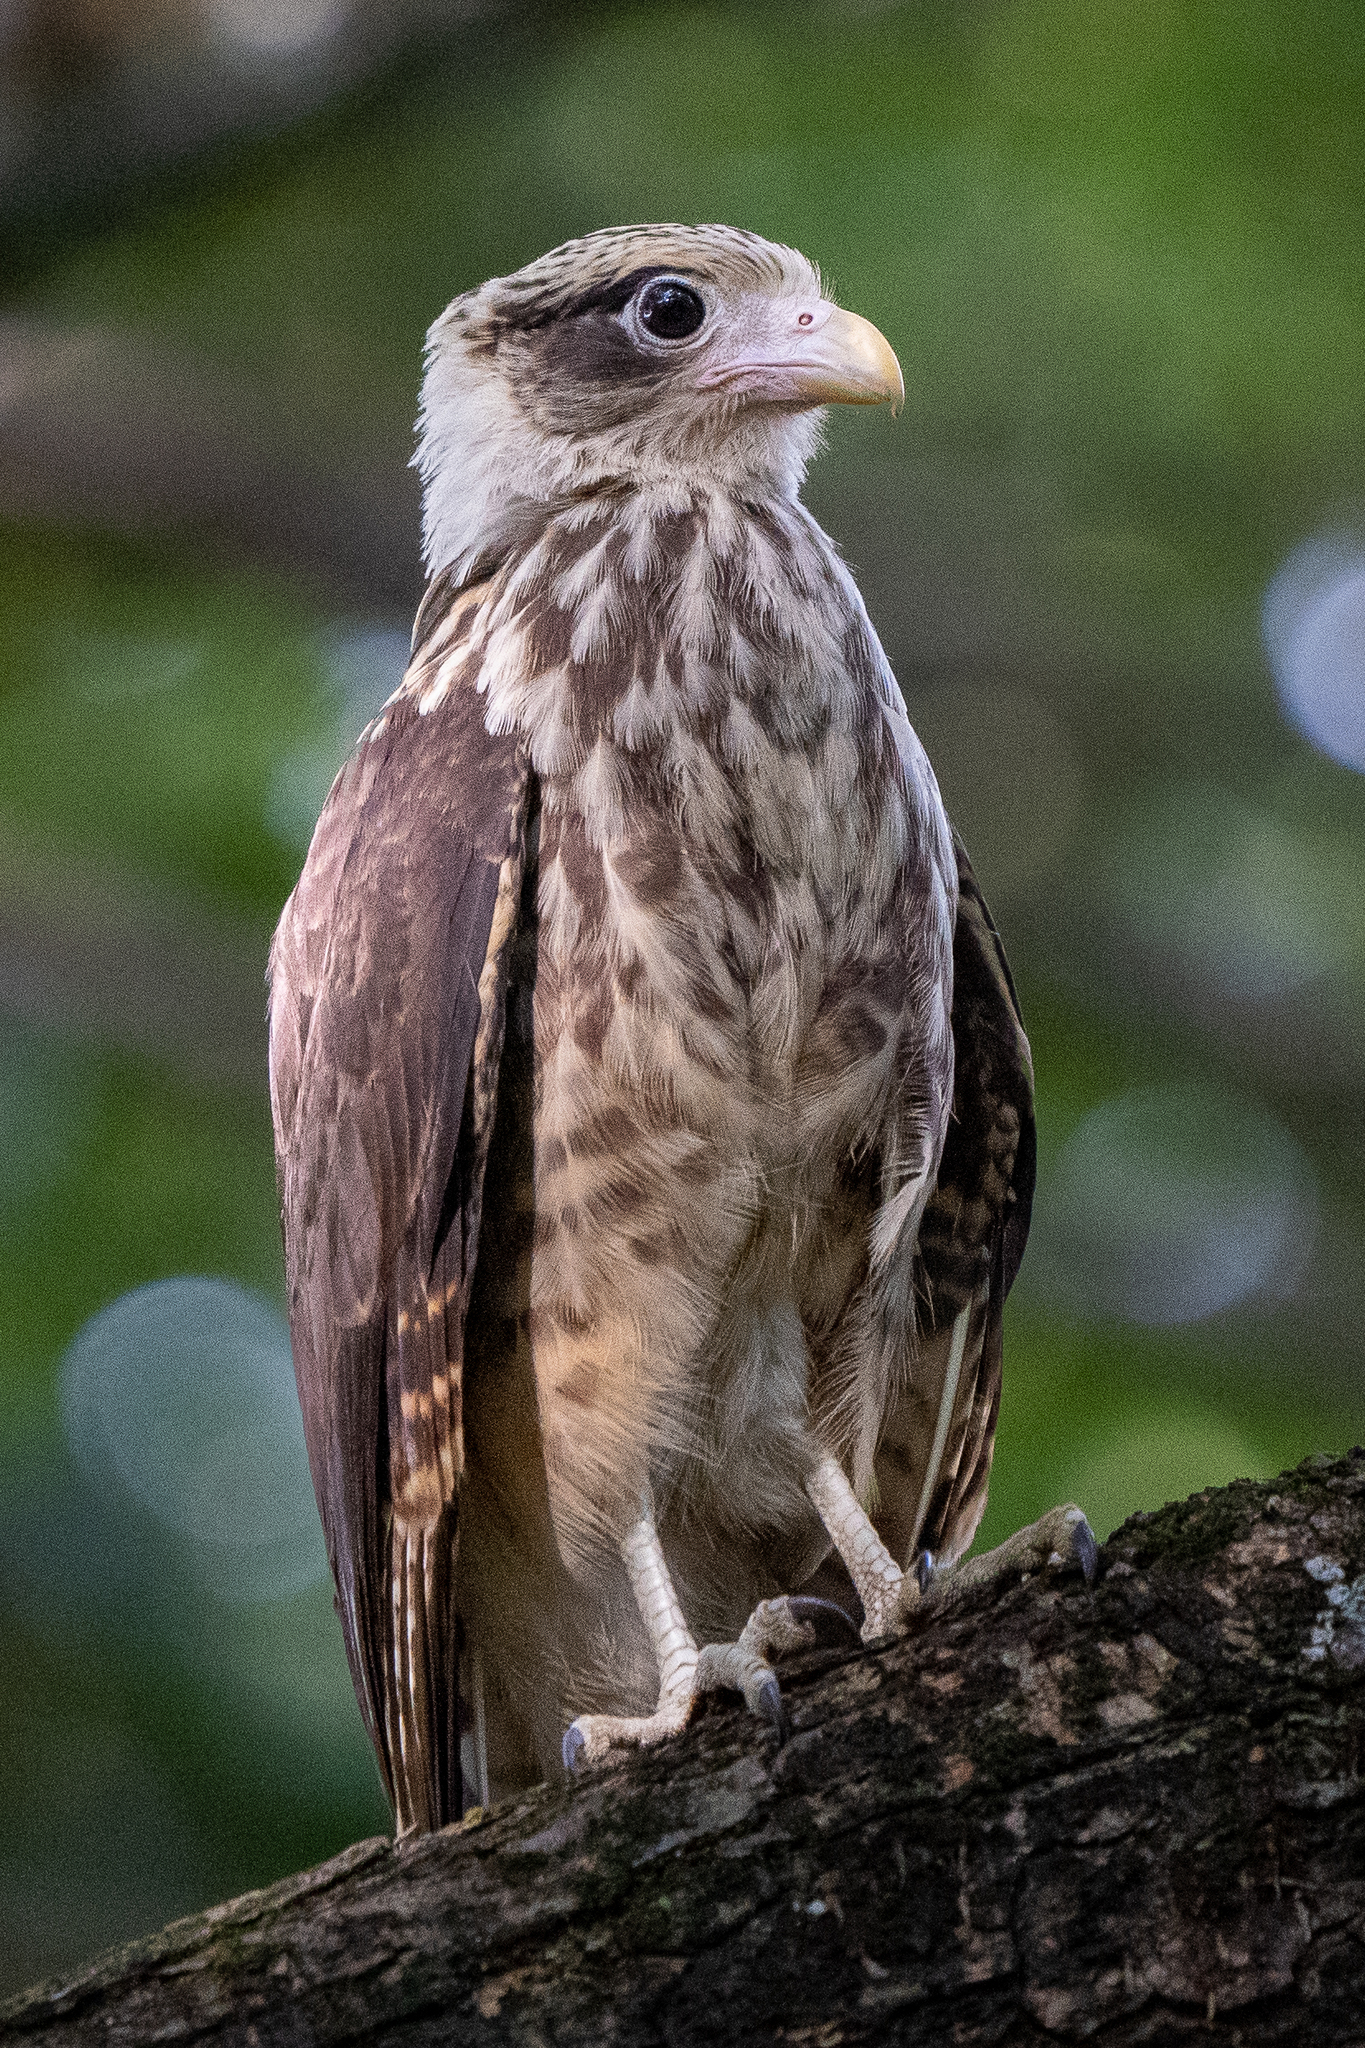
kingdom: Animalia
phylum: Chordata
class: Aves
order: Falconiformes
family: Falconidae
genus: Daptrius
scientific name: Daptrius
